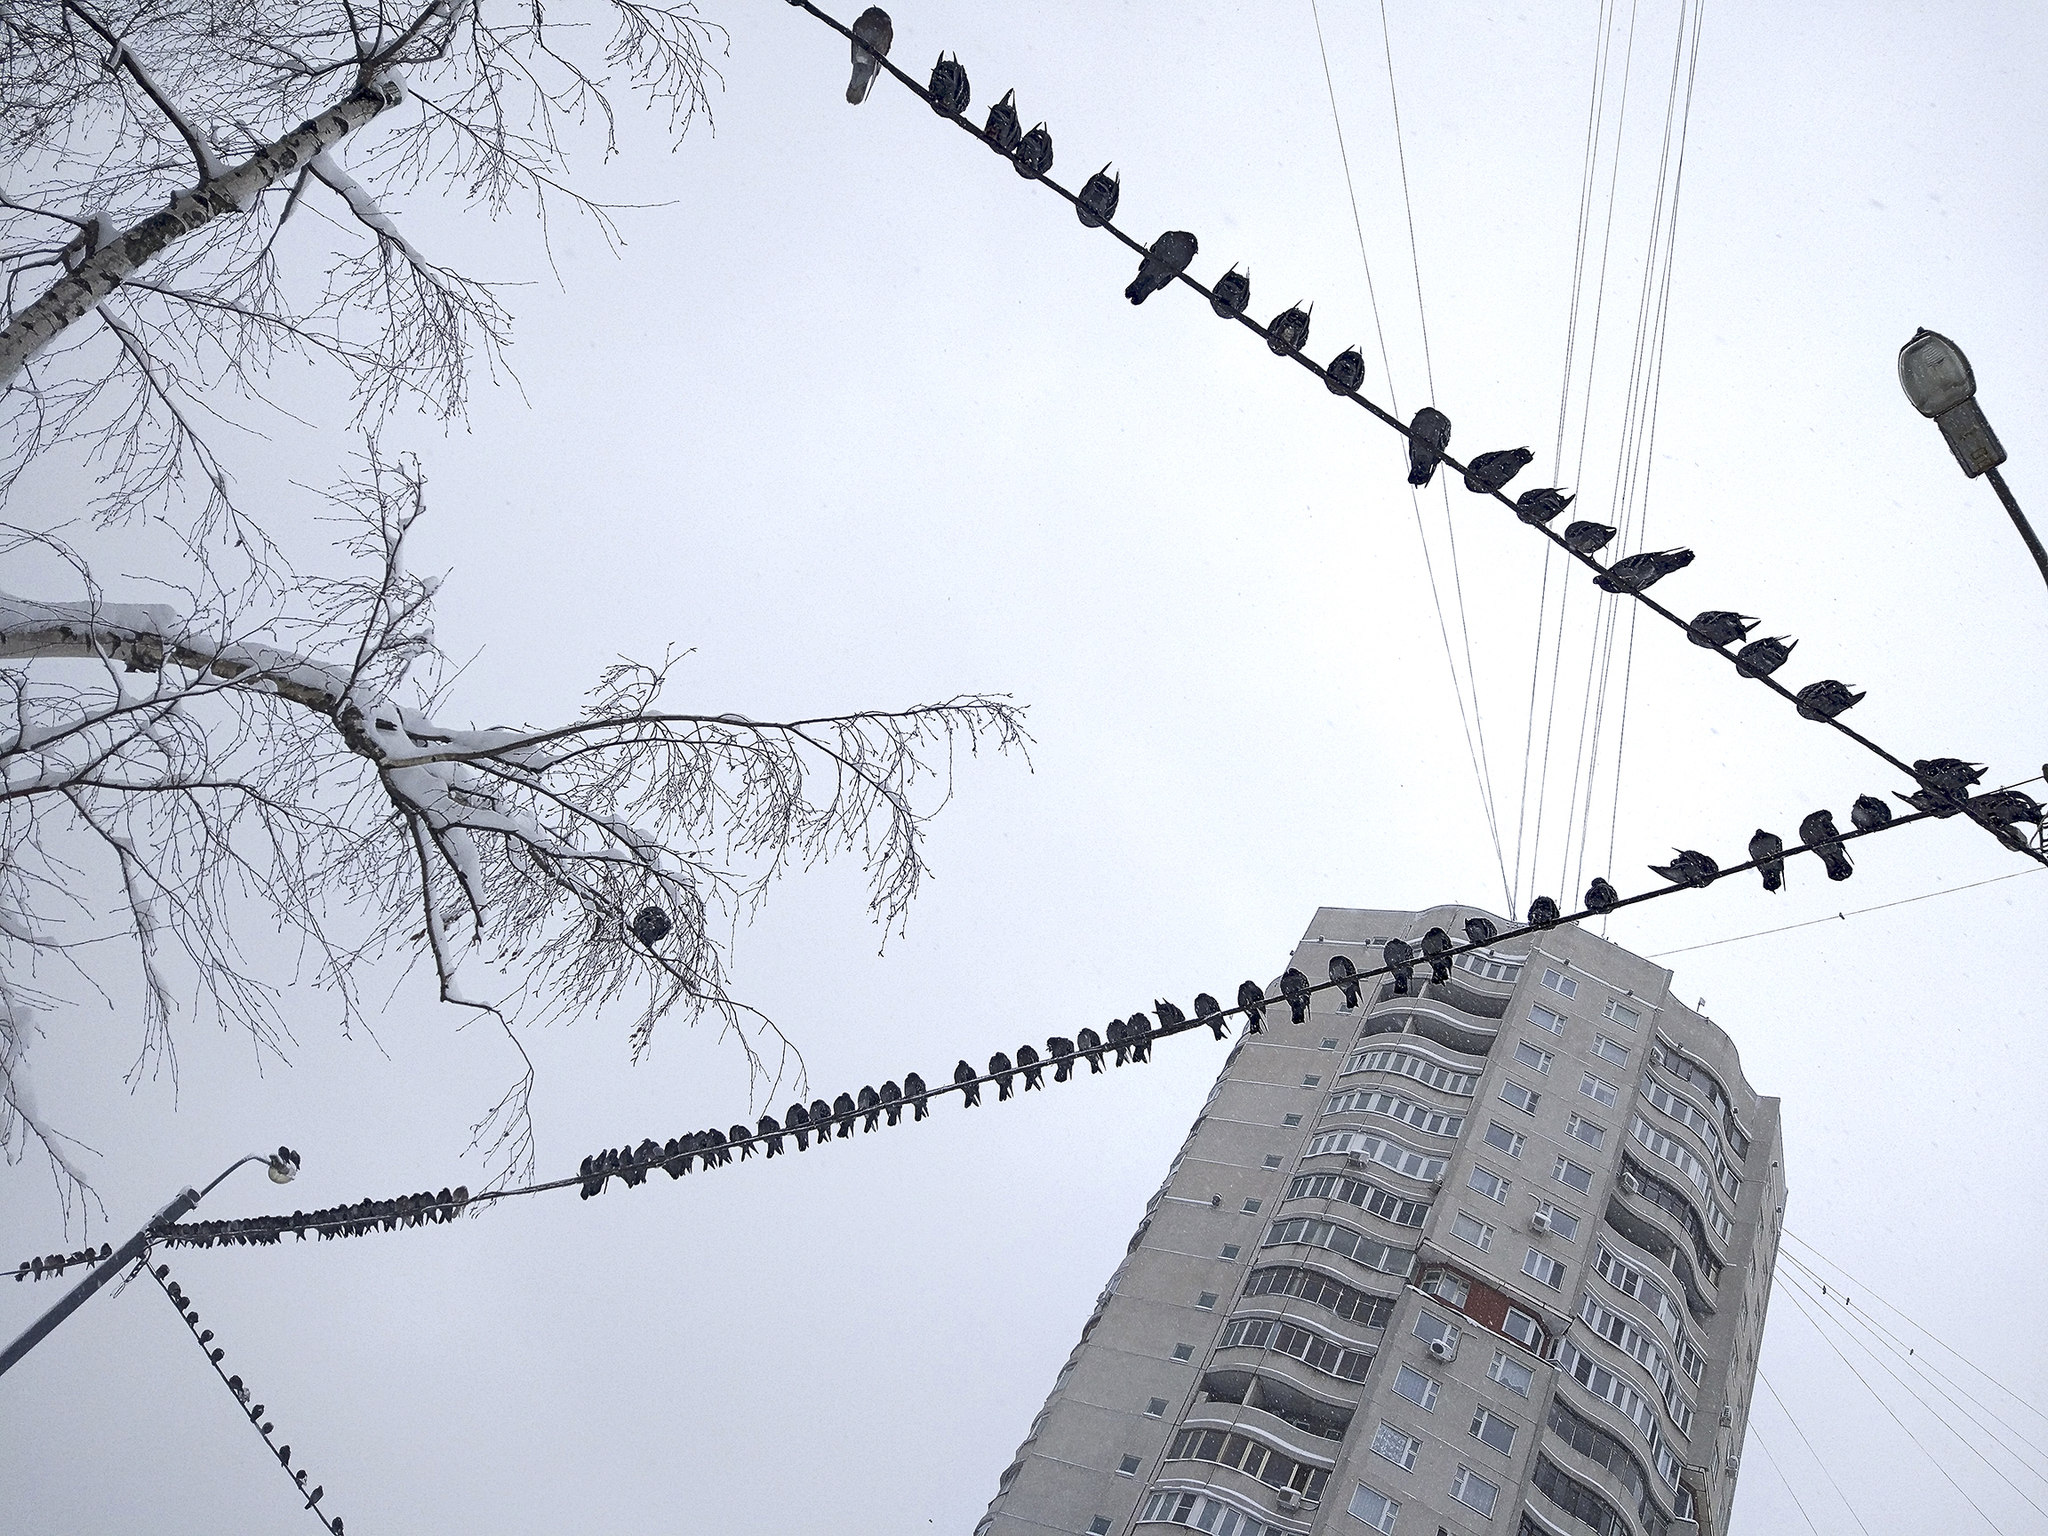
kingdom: Animalia
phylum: Chordata
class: Aves
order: Columbiformes
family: Columbidae
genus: Columba
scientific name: Columba livia
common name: Rock pigeon
